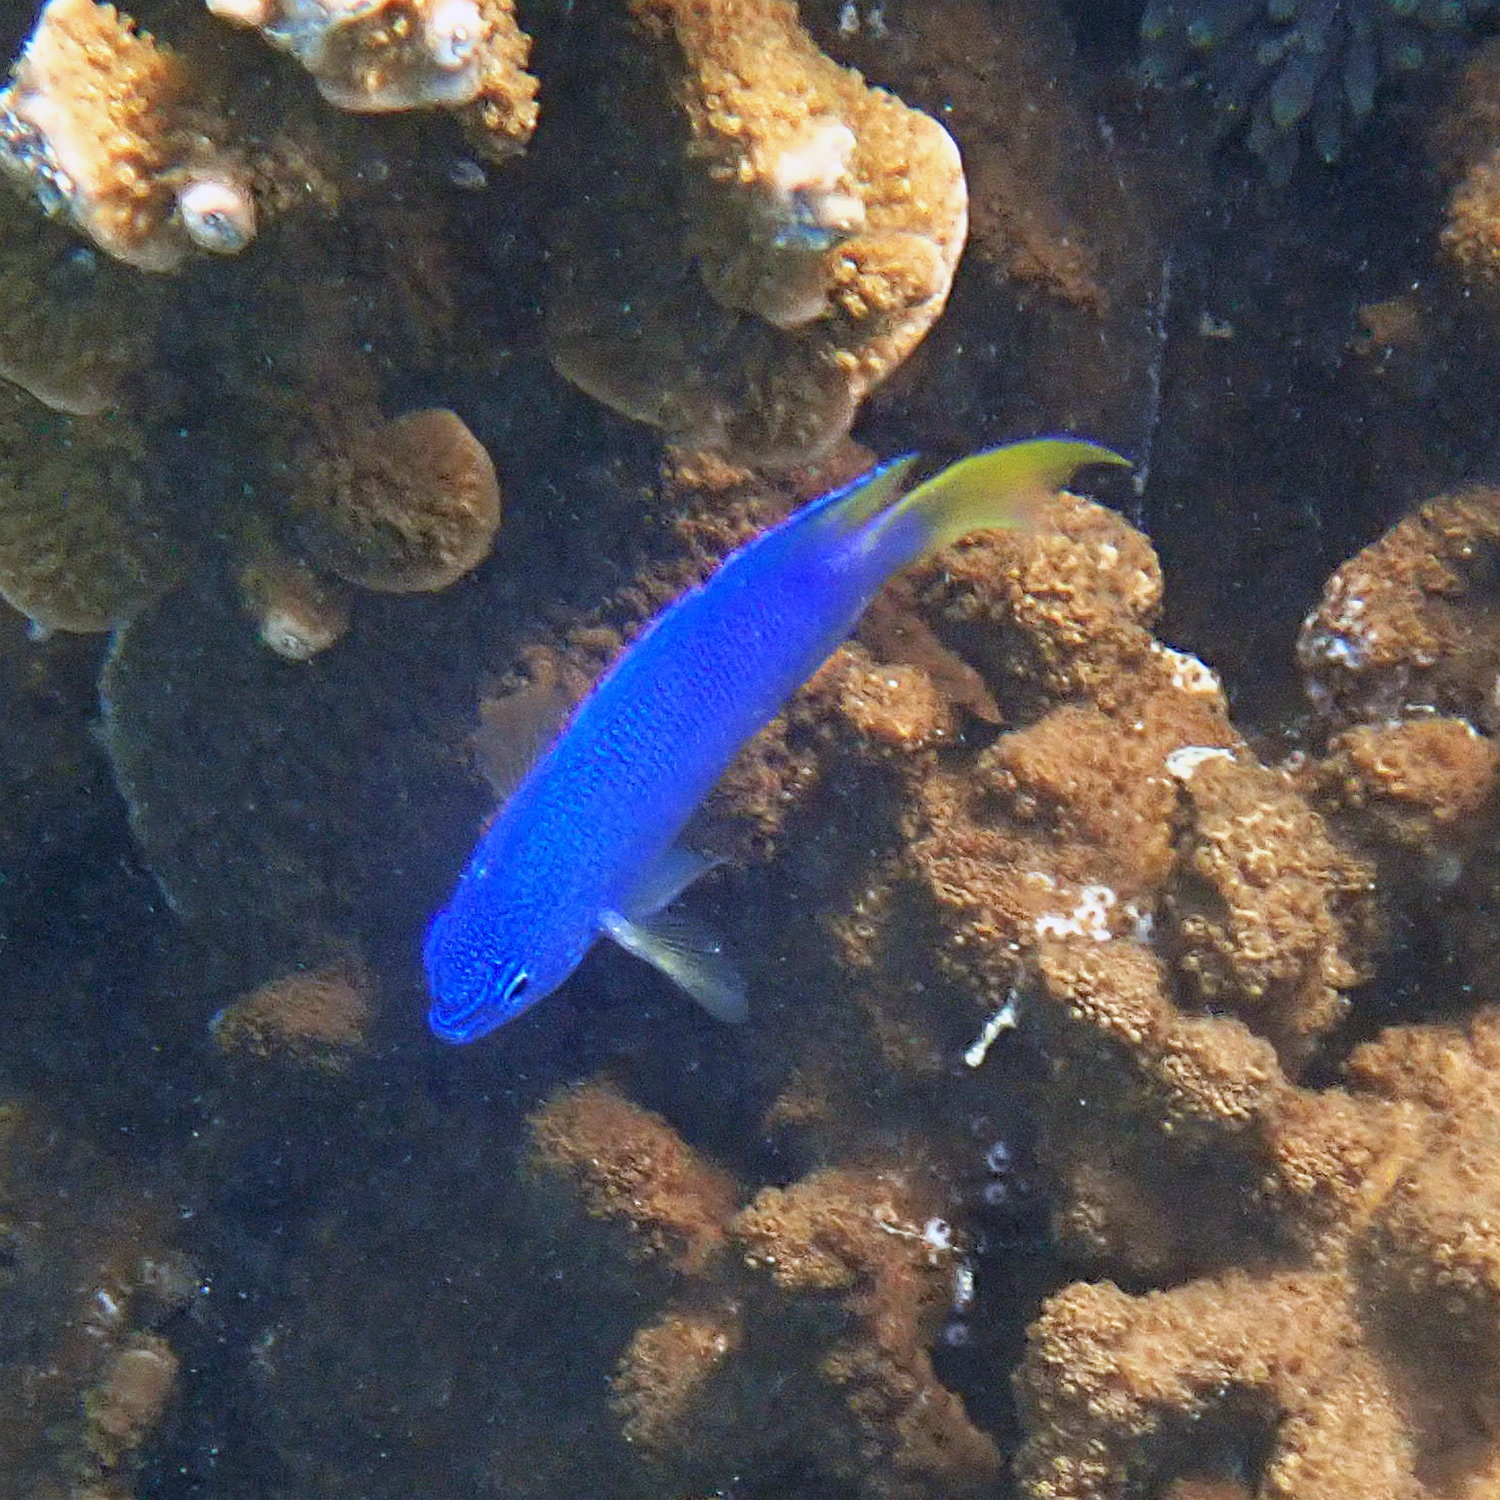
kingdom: Animalia
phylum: Chordata
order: Perciformes
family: Pomacentridae
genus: Pomacentrus
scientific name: Pomacentrus pavo
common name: Sapphire damsel
